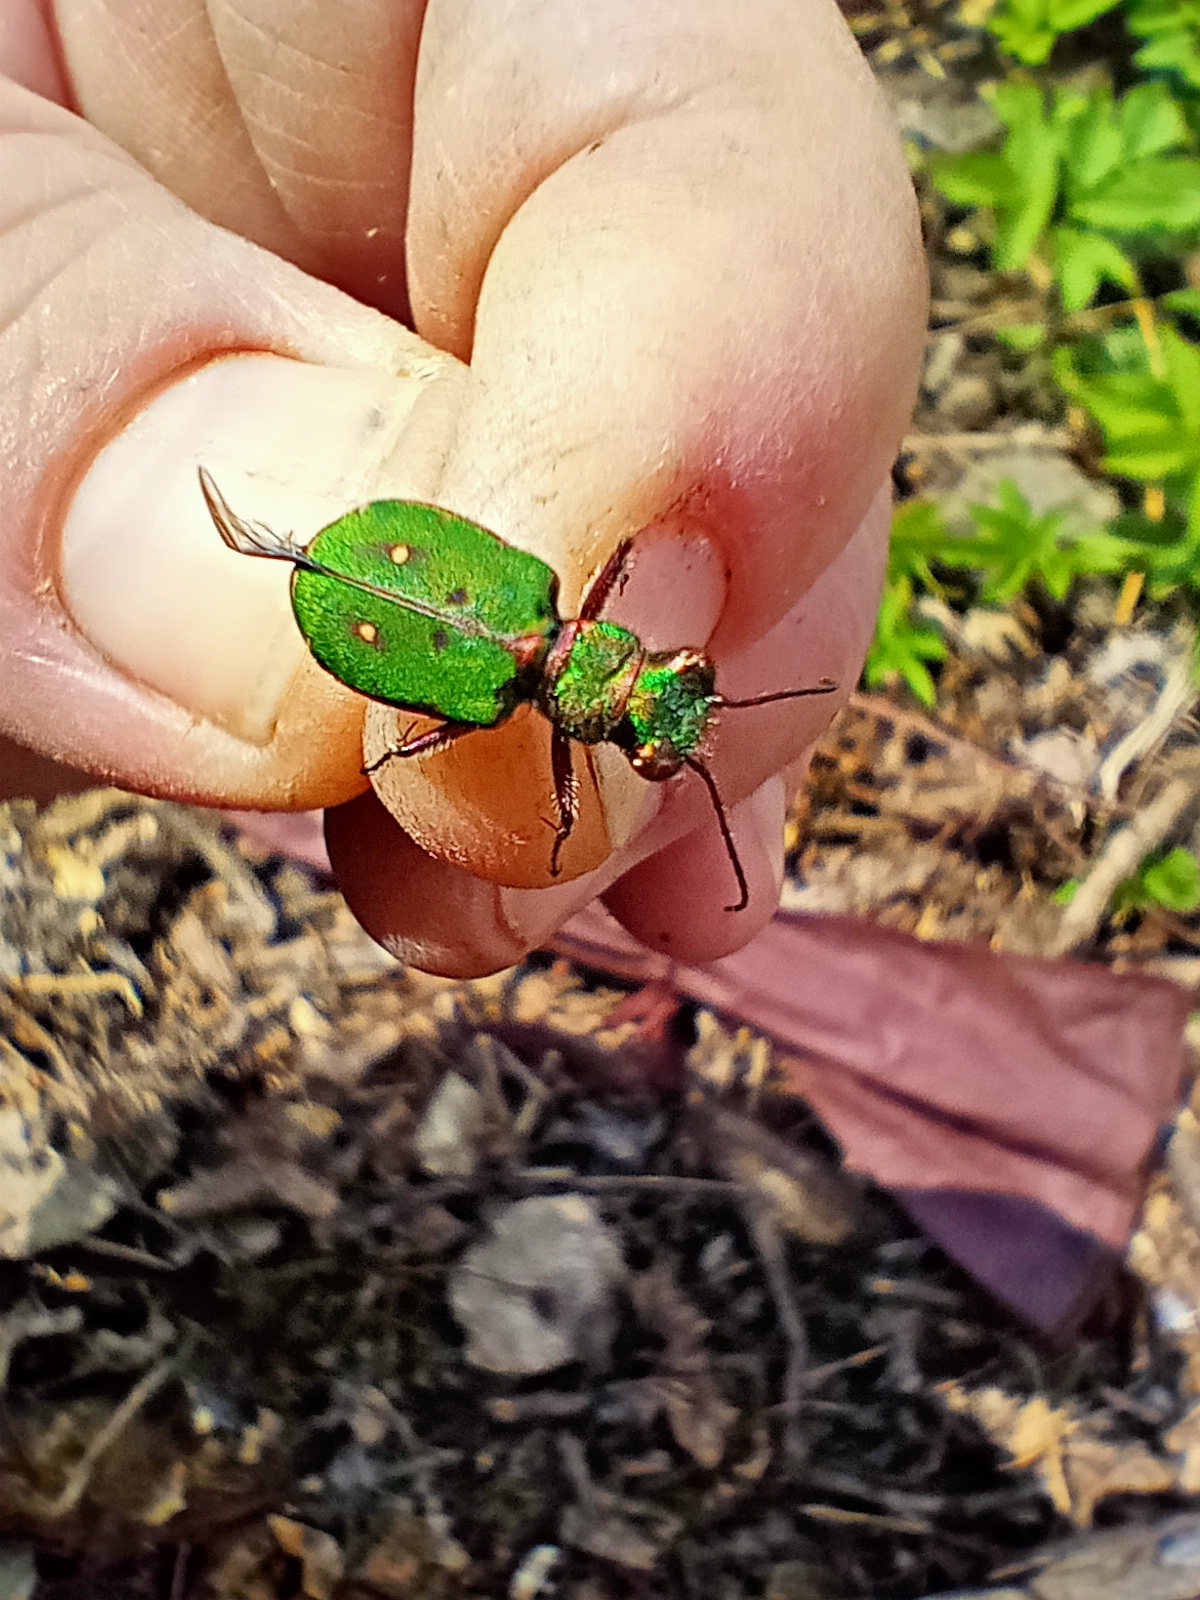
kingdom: Animalia
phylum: Arthropoda
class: Insecta
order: Coleoptera
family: Carabidae
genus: Cicindela
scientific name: Cicindela campestris
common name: Common tiger beetle
